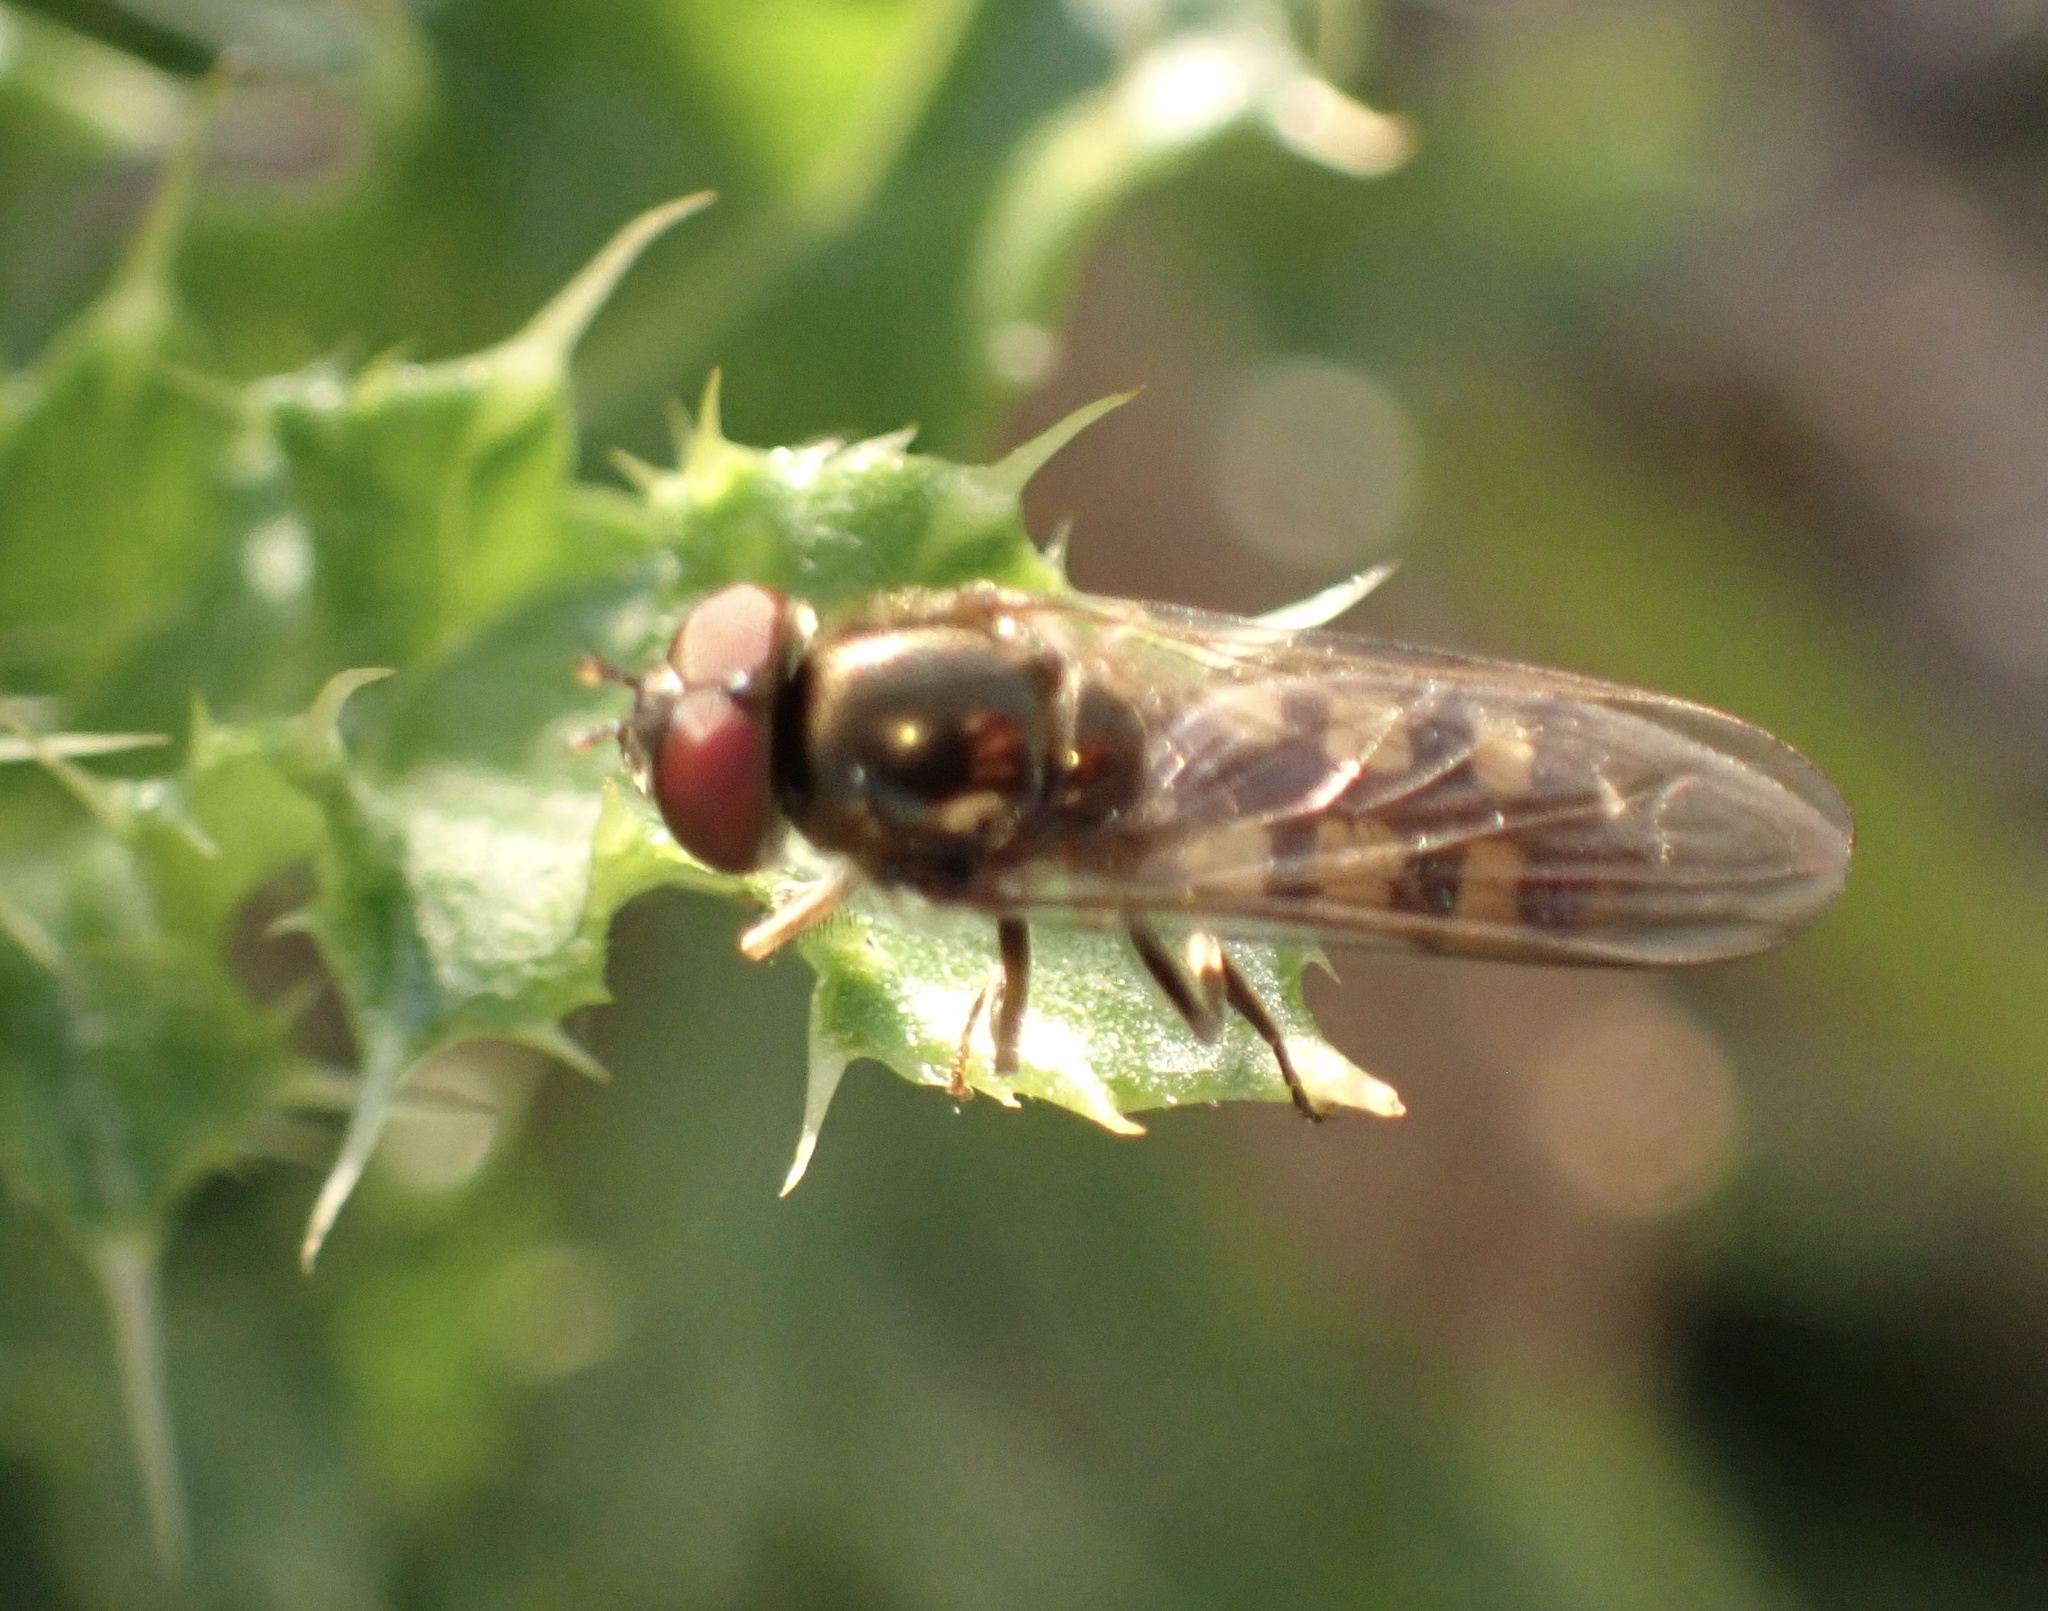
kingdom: Animalia
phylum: Arthropoda
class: Insecta
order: Diptera
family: Syrphidae
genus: Platycheirus
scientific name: Platycheirus
